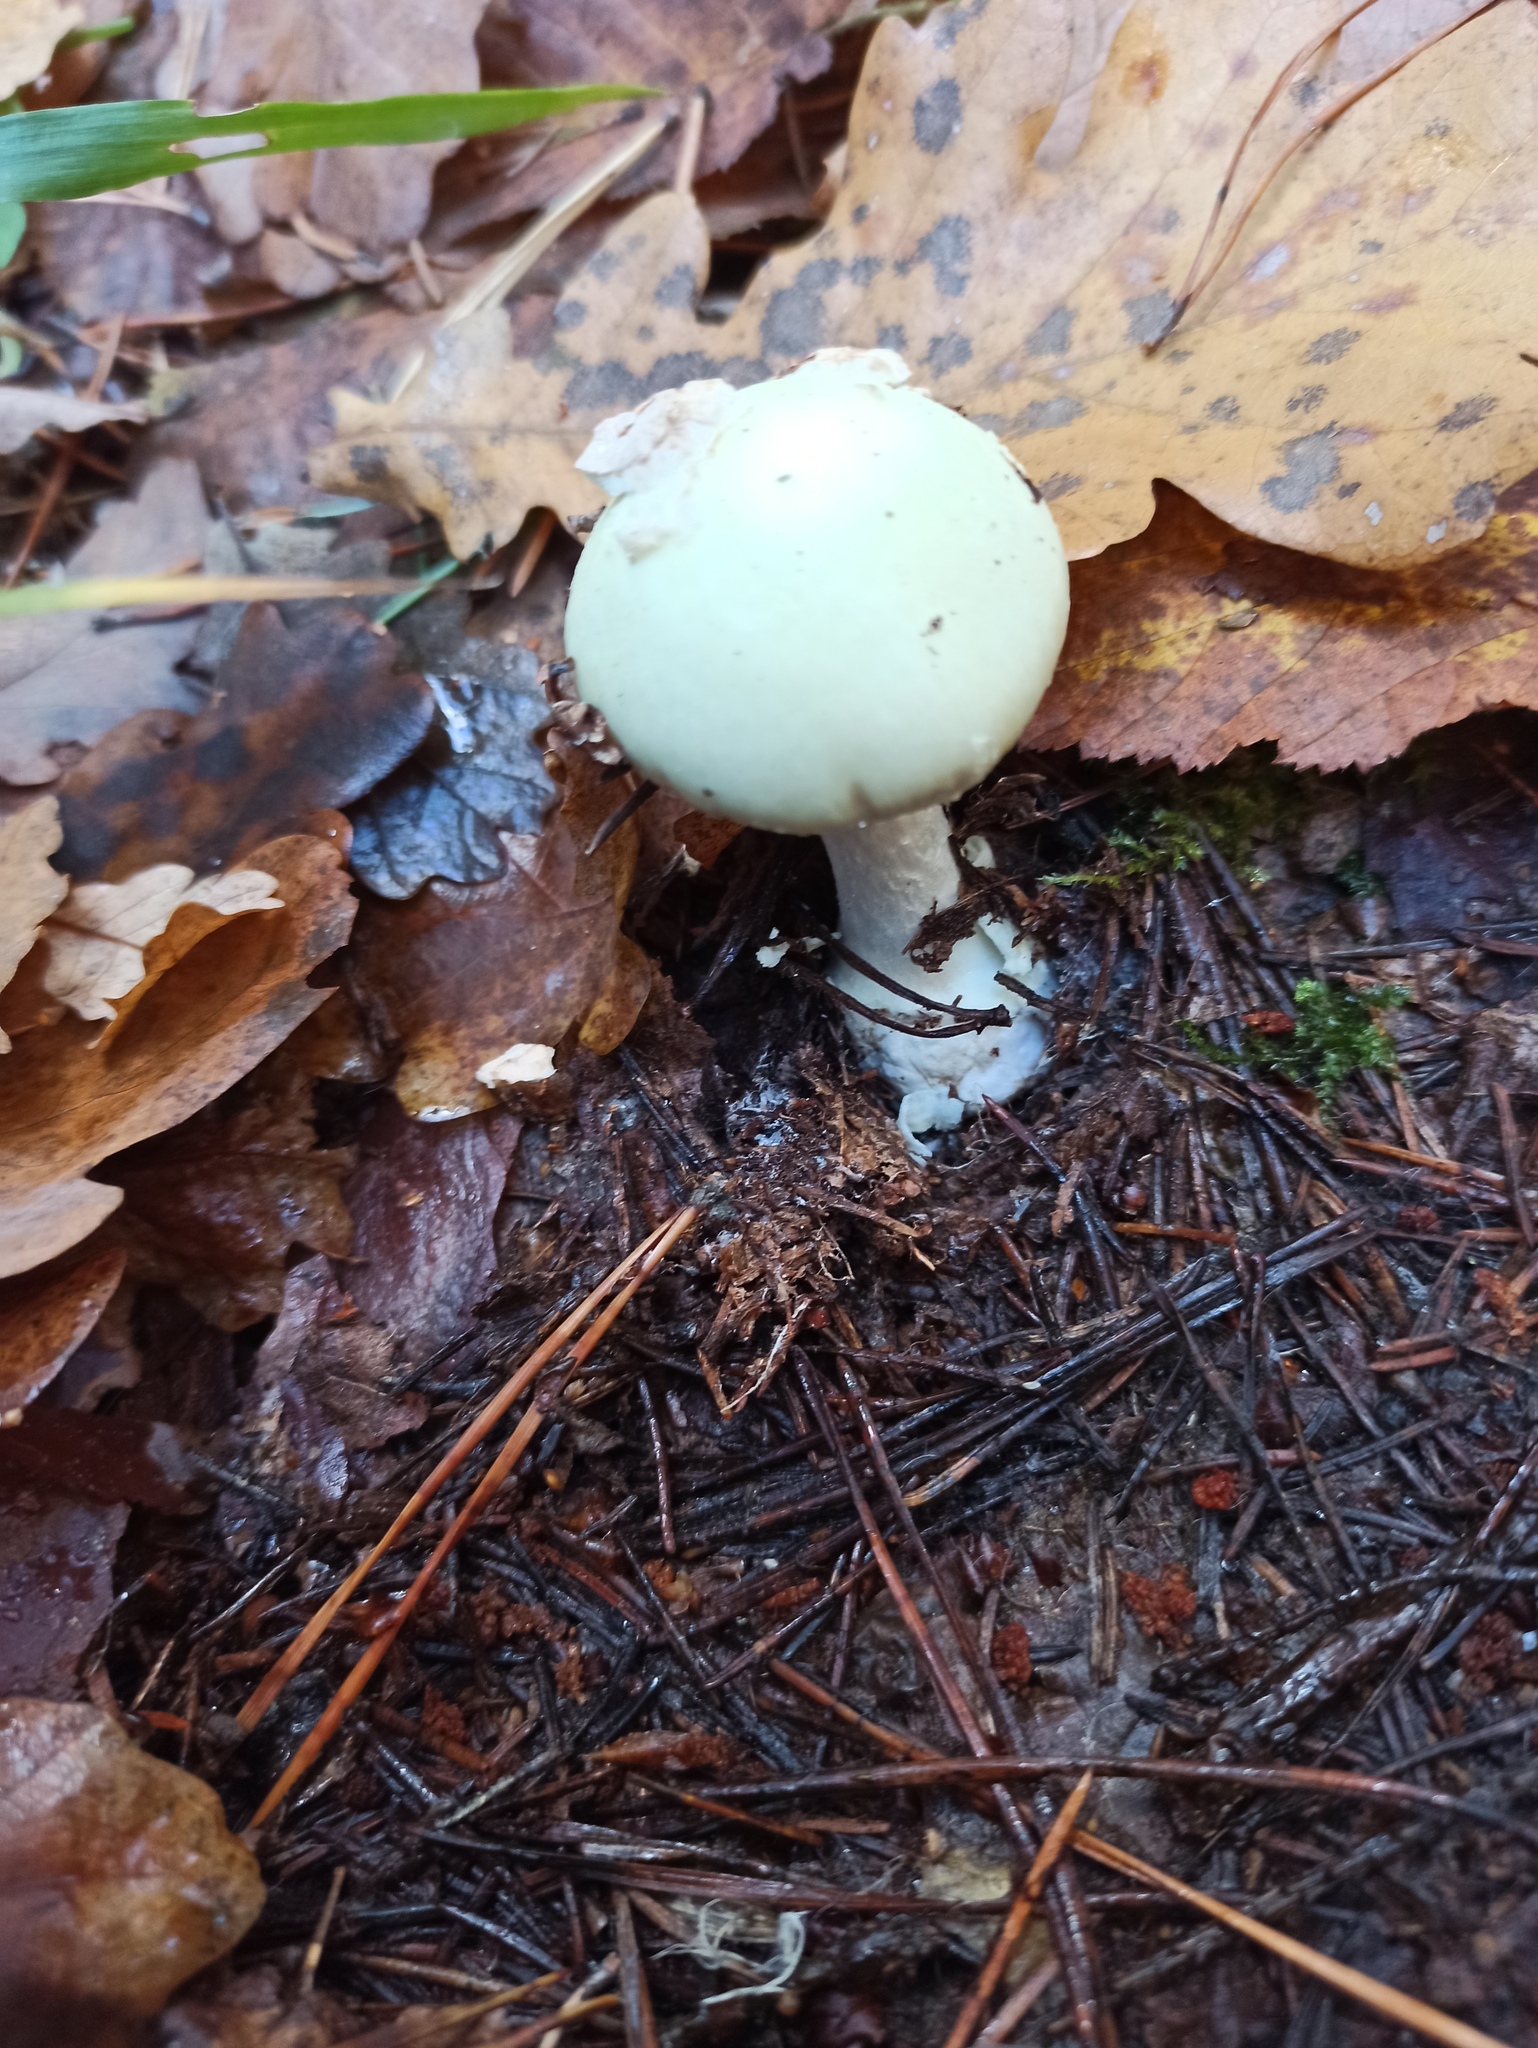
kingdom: Fungi
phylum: Basidiomycota
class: Agaricomycetes
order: Agaricales
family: Amanitaceae
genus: Amanita
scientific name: Amanita citrina
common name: False death-cap
